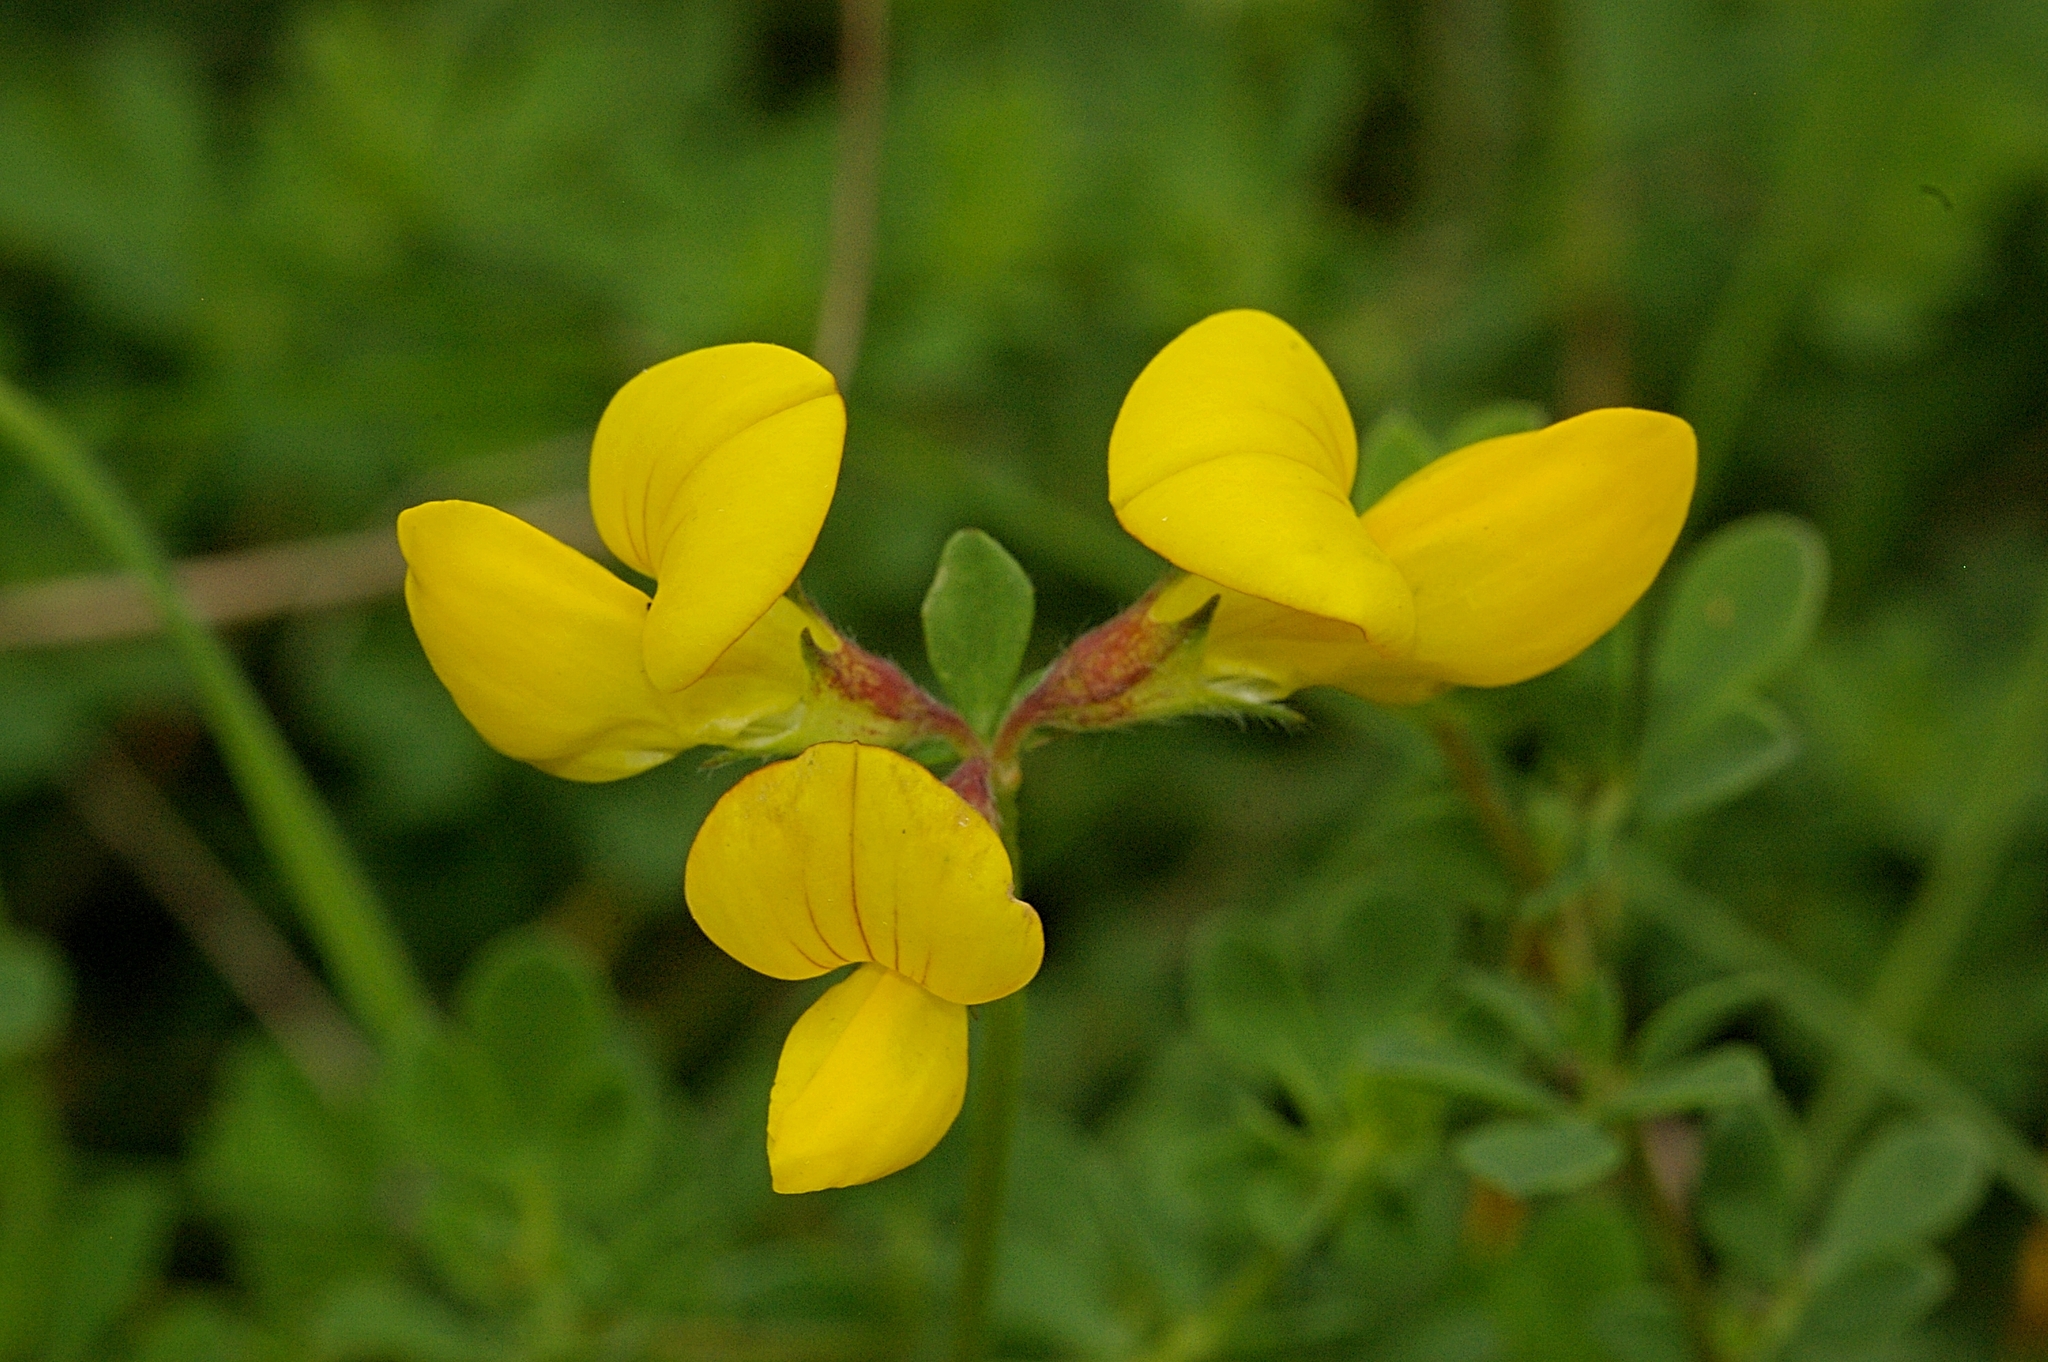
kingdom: Plantae
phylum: Tracheophyta
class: Magnoliopsida
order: Fabales
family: Fabaceae
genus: Lotus
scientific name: Lotus corniculatus
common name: Common bird's-foot-trefoil
